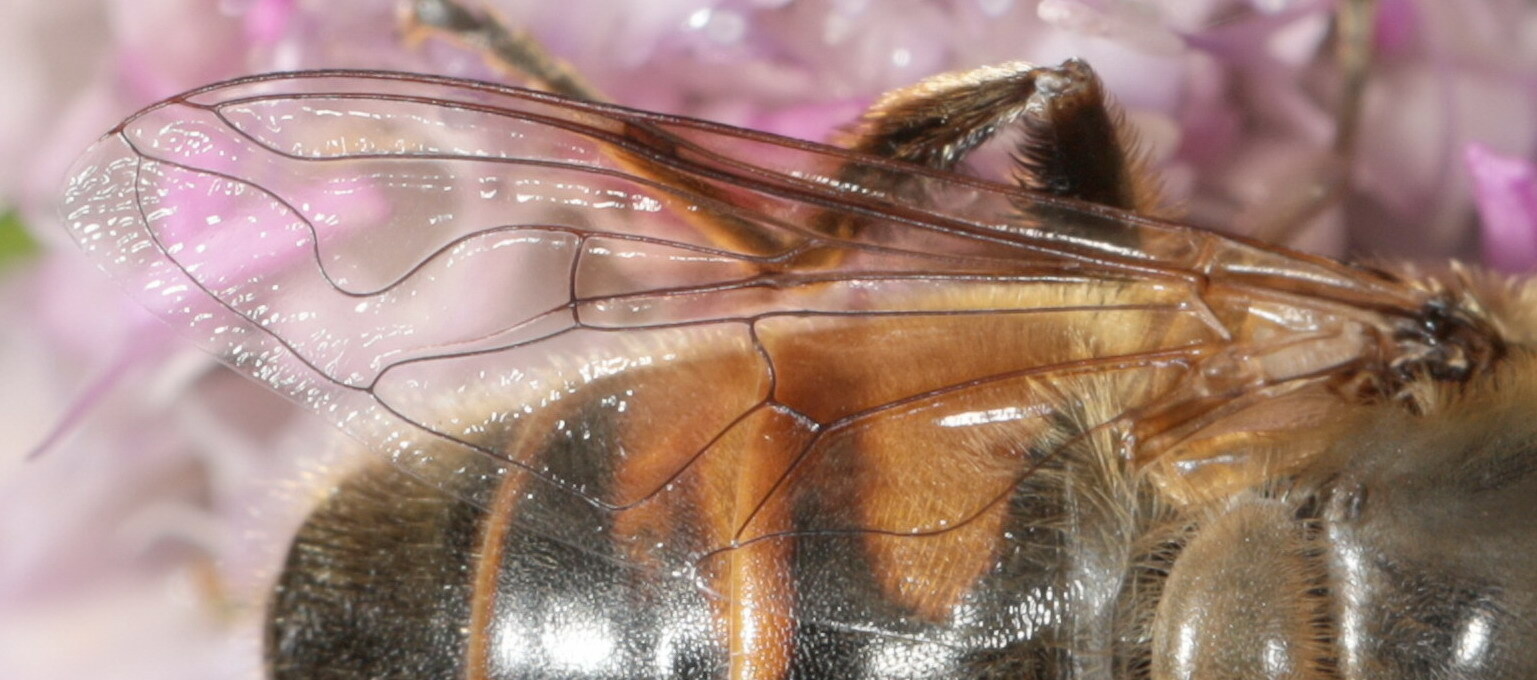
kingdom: Animalia
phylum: Arthropoda
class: Insecta
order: Diptera
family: Syrphidae
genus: Eristalis
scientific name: Eristalis tenax
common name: Drone fly
